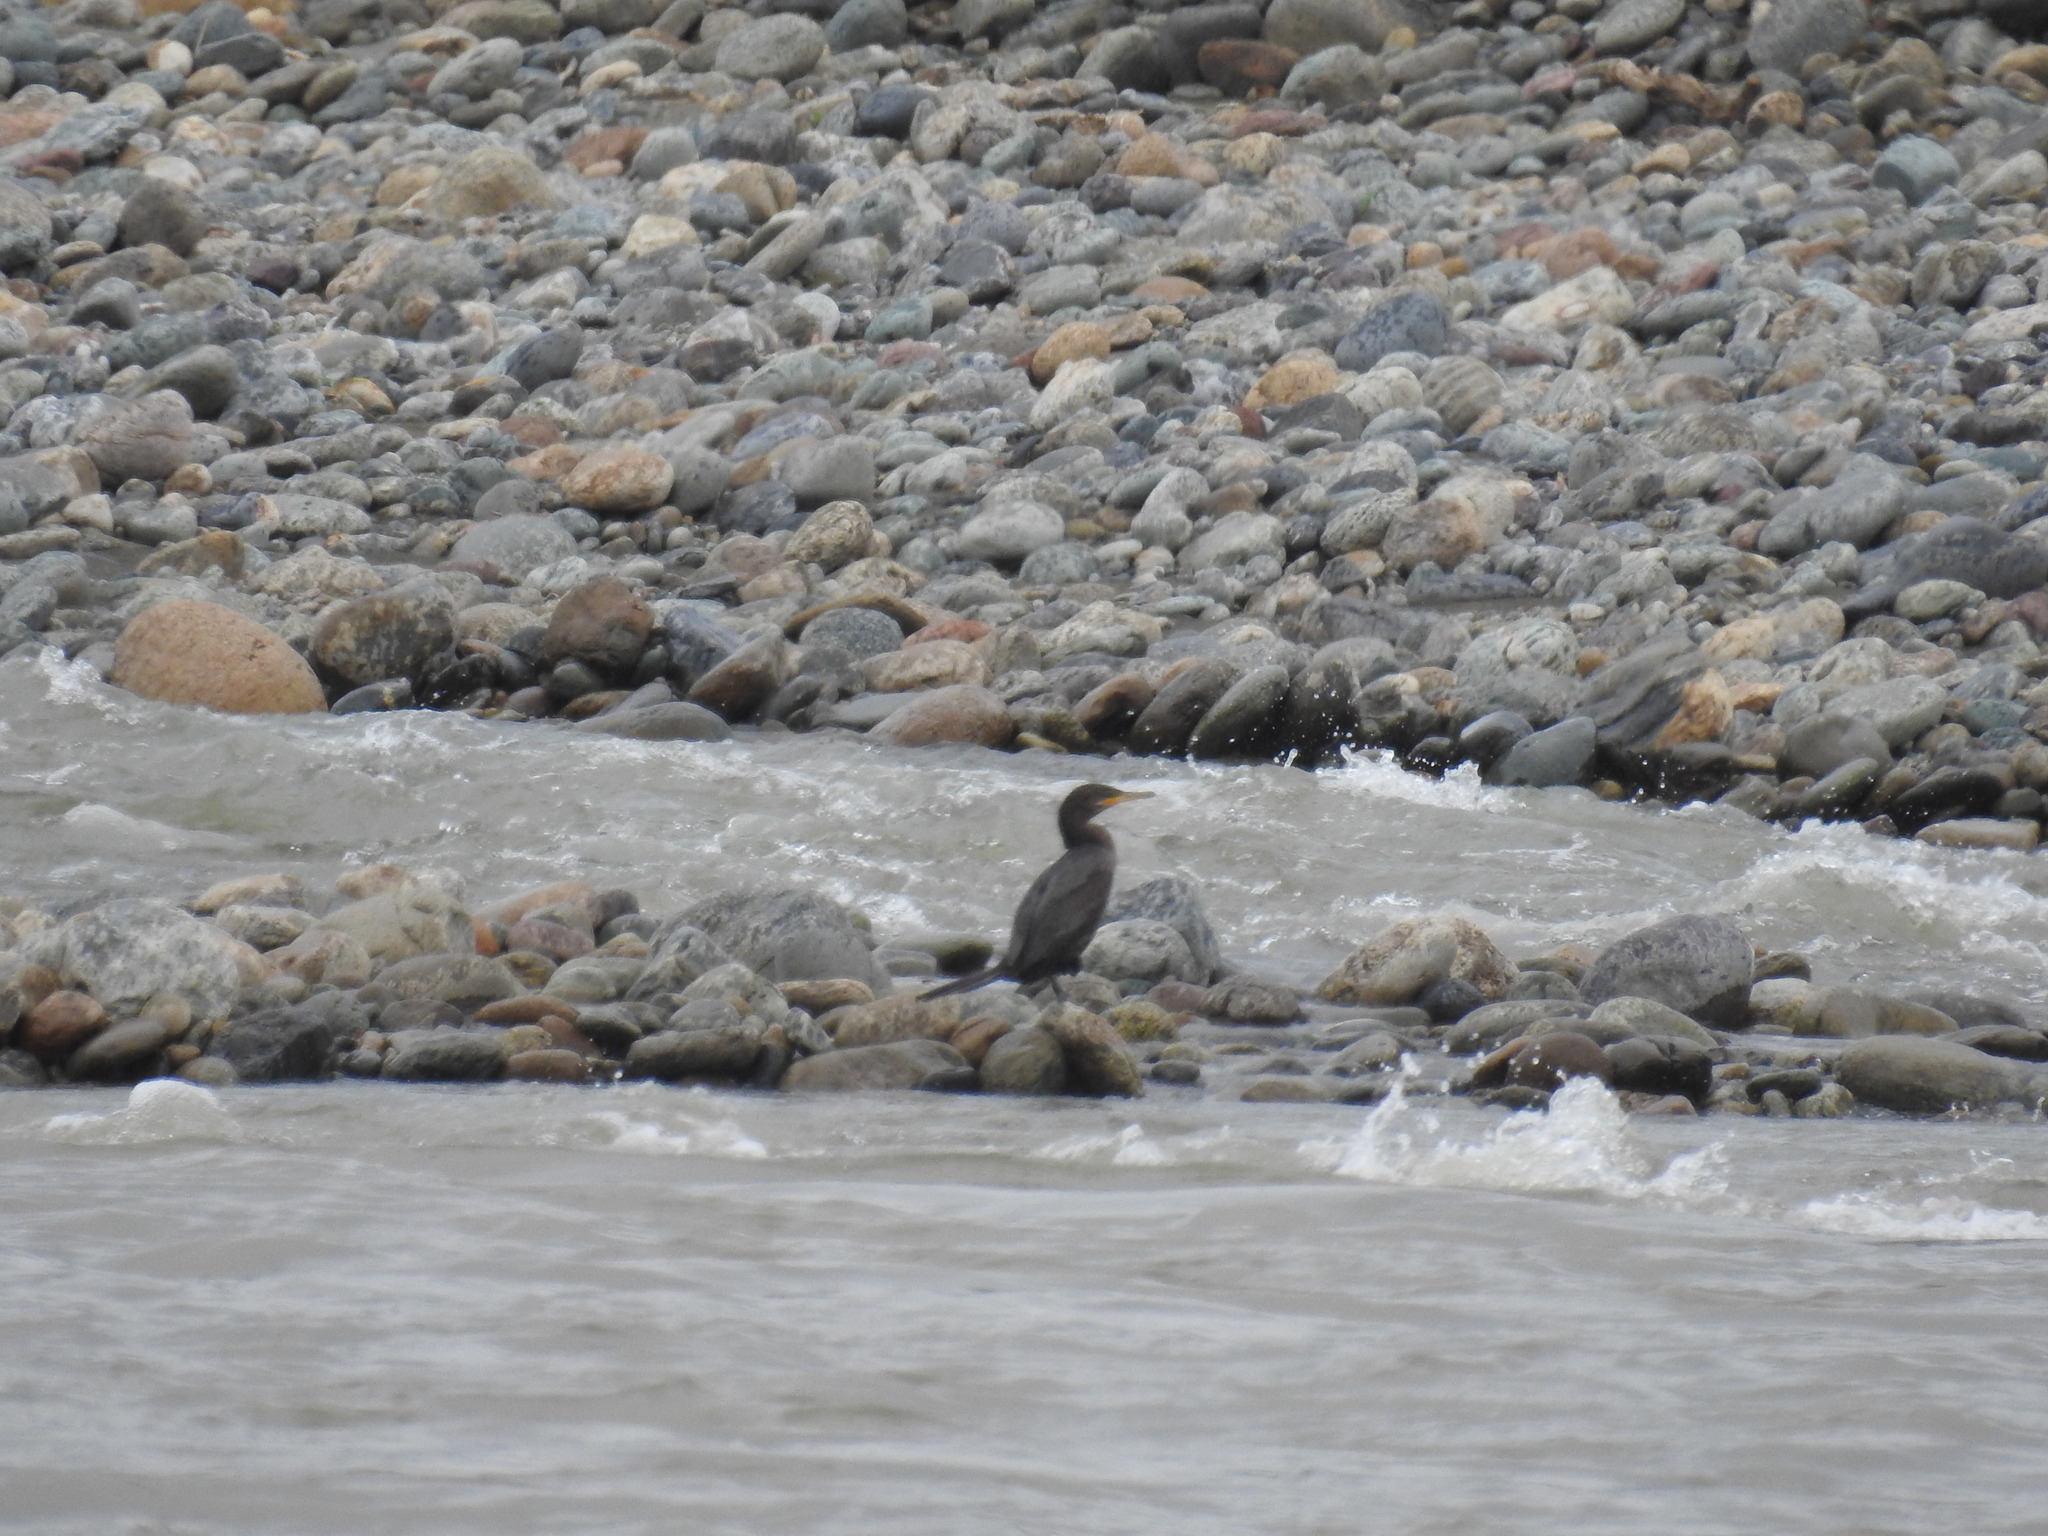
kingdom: Animalia
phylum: Chordata
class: Aves
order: Suliformes
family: Phalacrocoracidae
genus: Phalacrocorax
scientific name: Phalacrocorax brasilianus
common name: Neotropic cormorant
